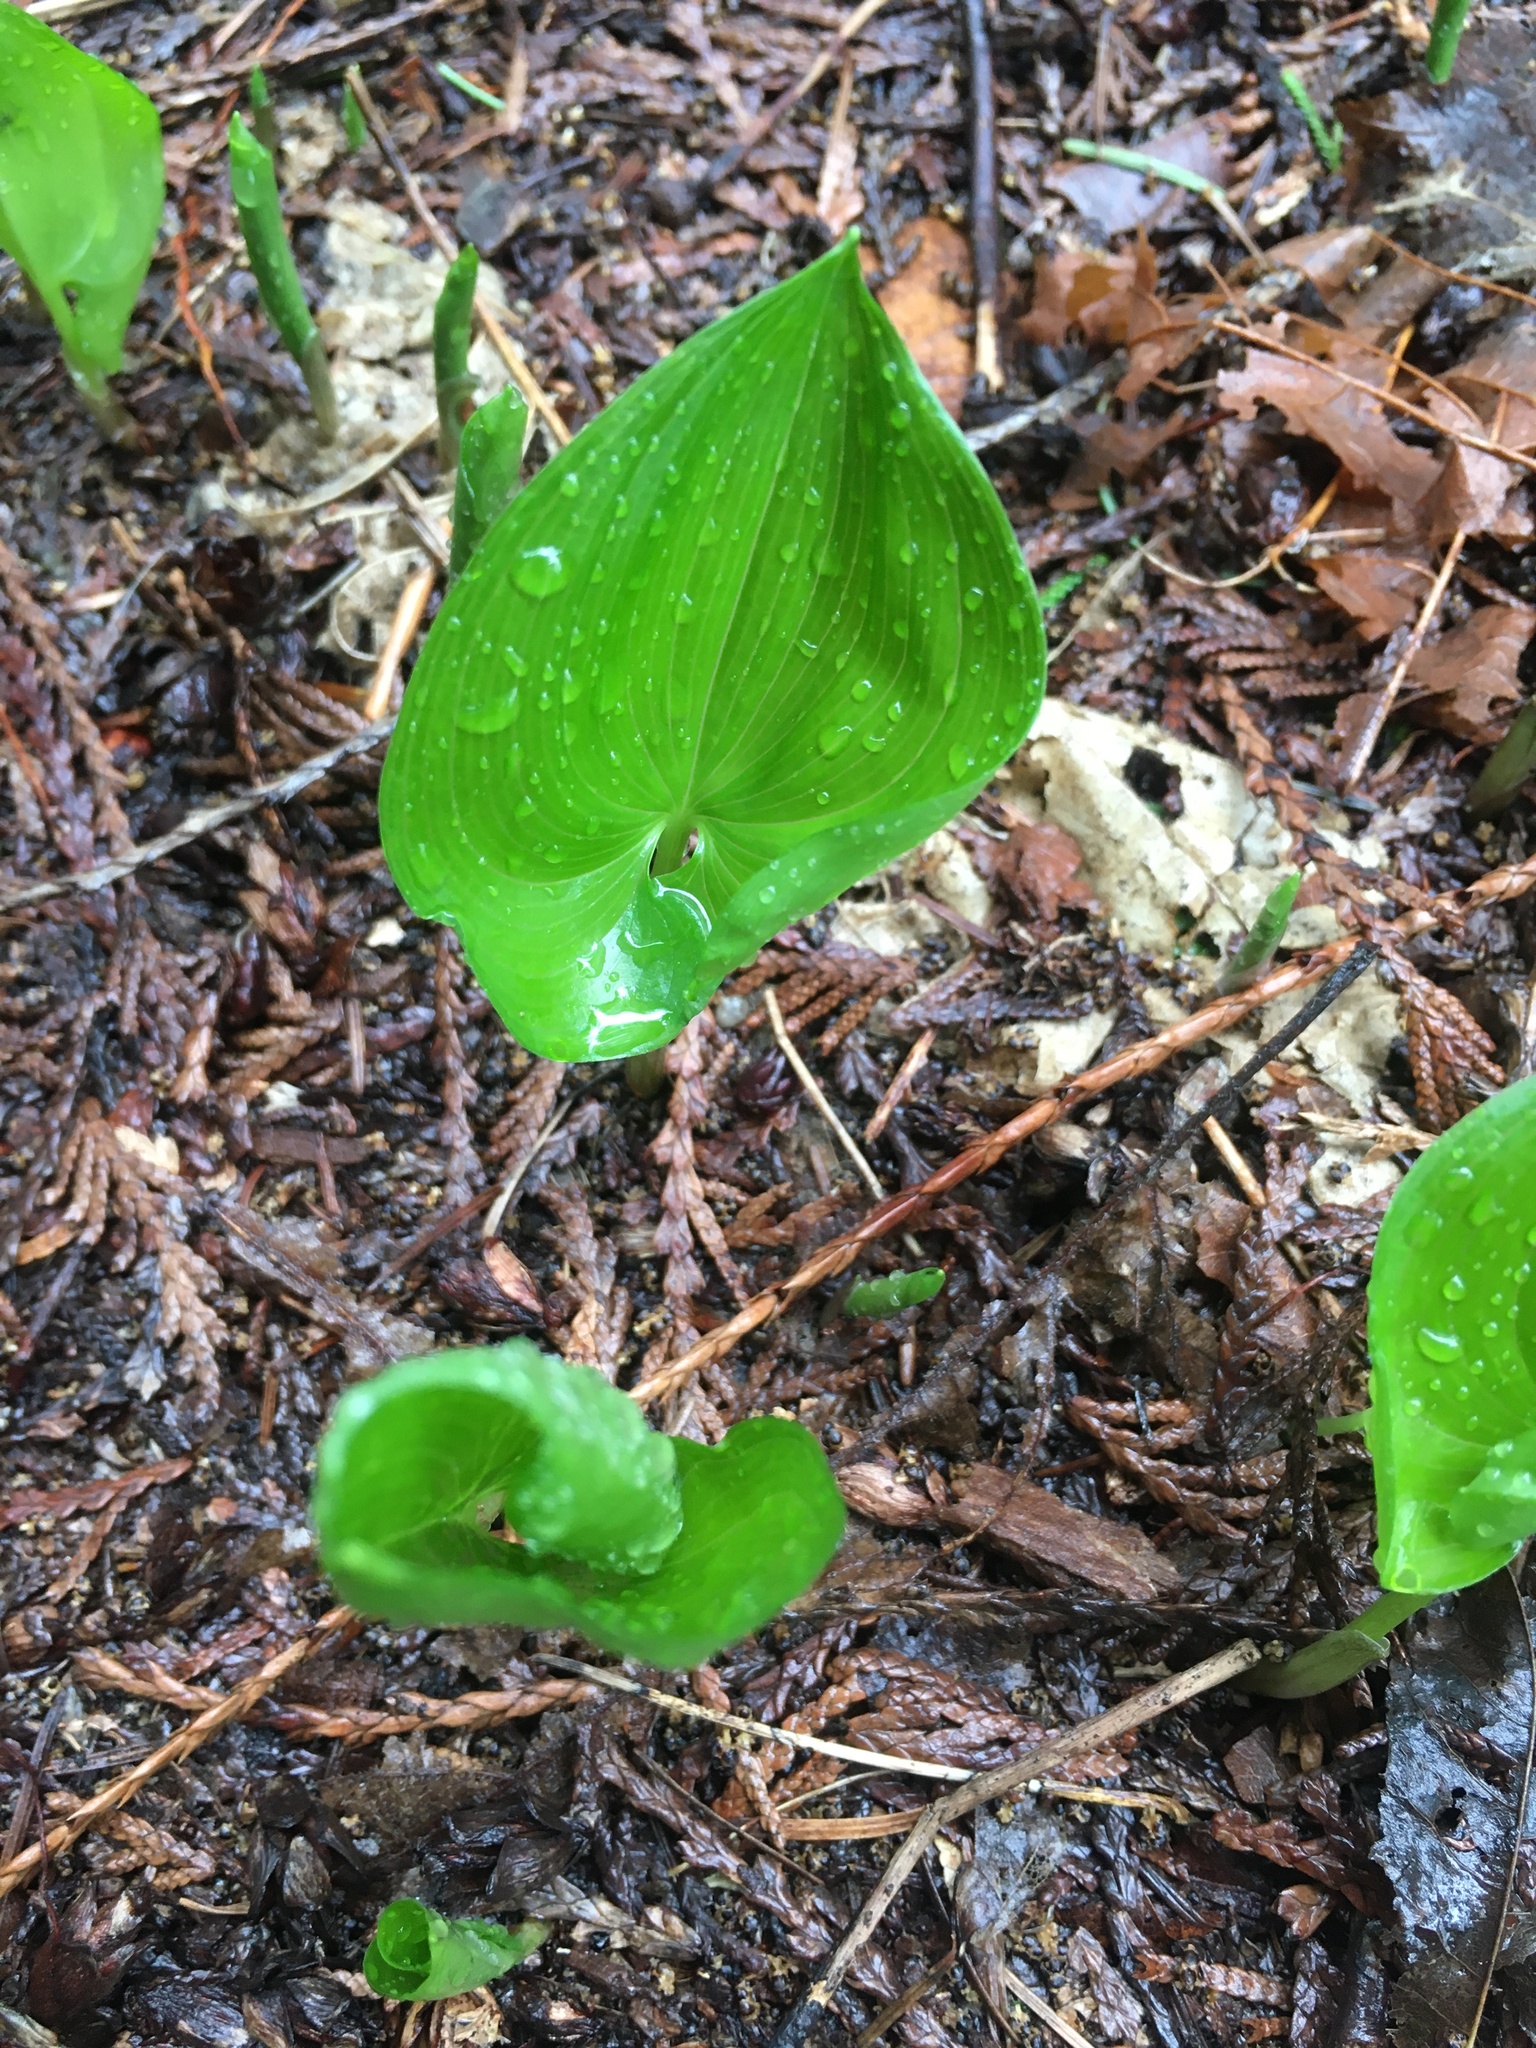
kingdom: Plantae
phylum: Tracheophyta
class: Liliopsida
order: Asparagales
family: Asparagaceae
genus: Maianthemum
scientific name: Maianthemum dilatatum
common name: False lily-of-the-valley
